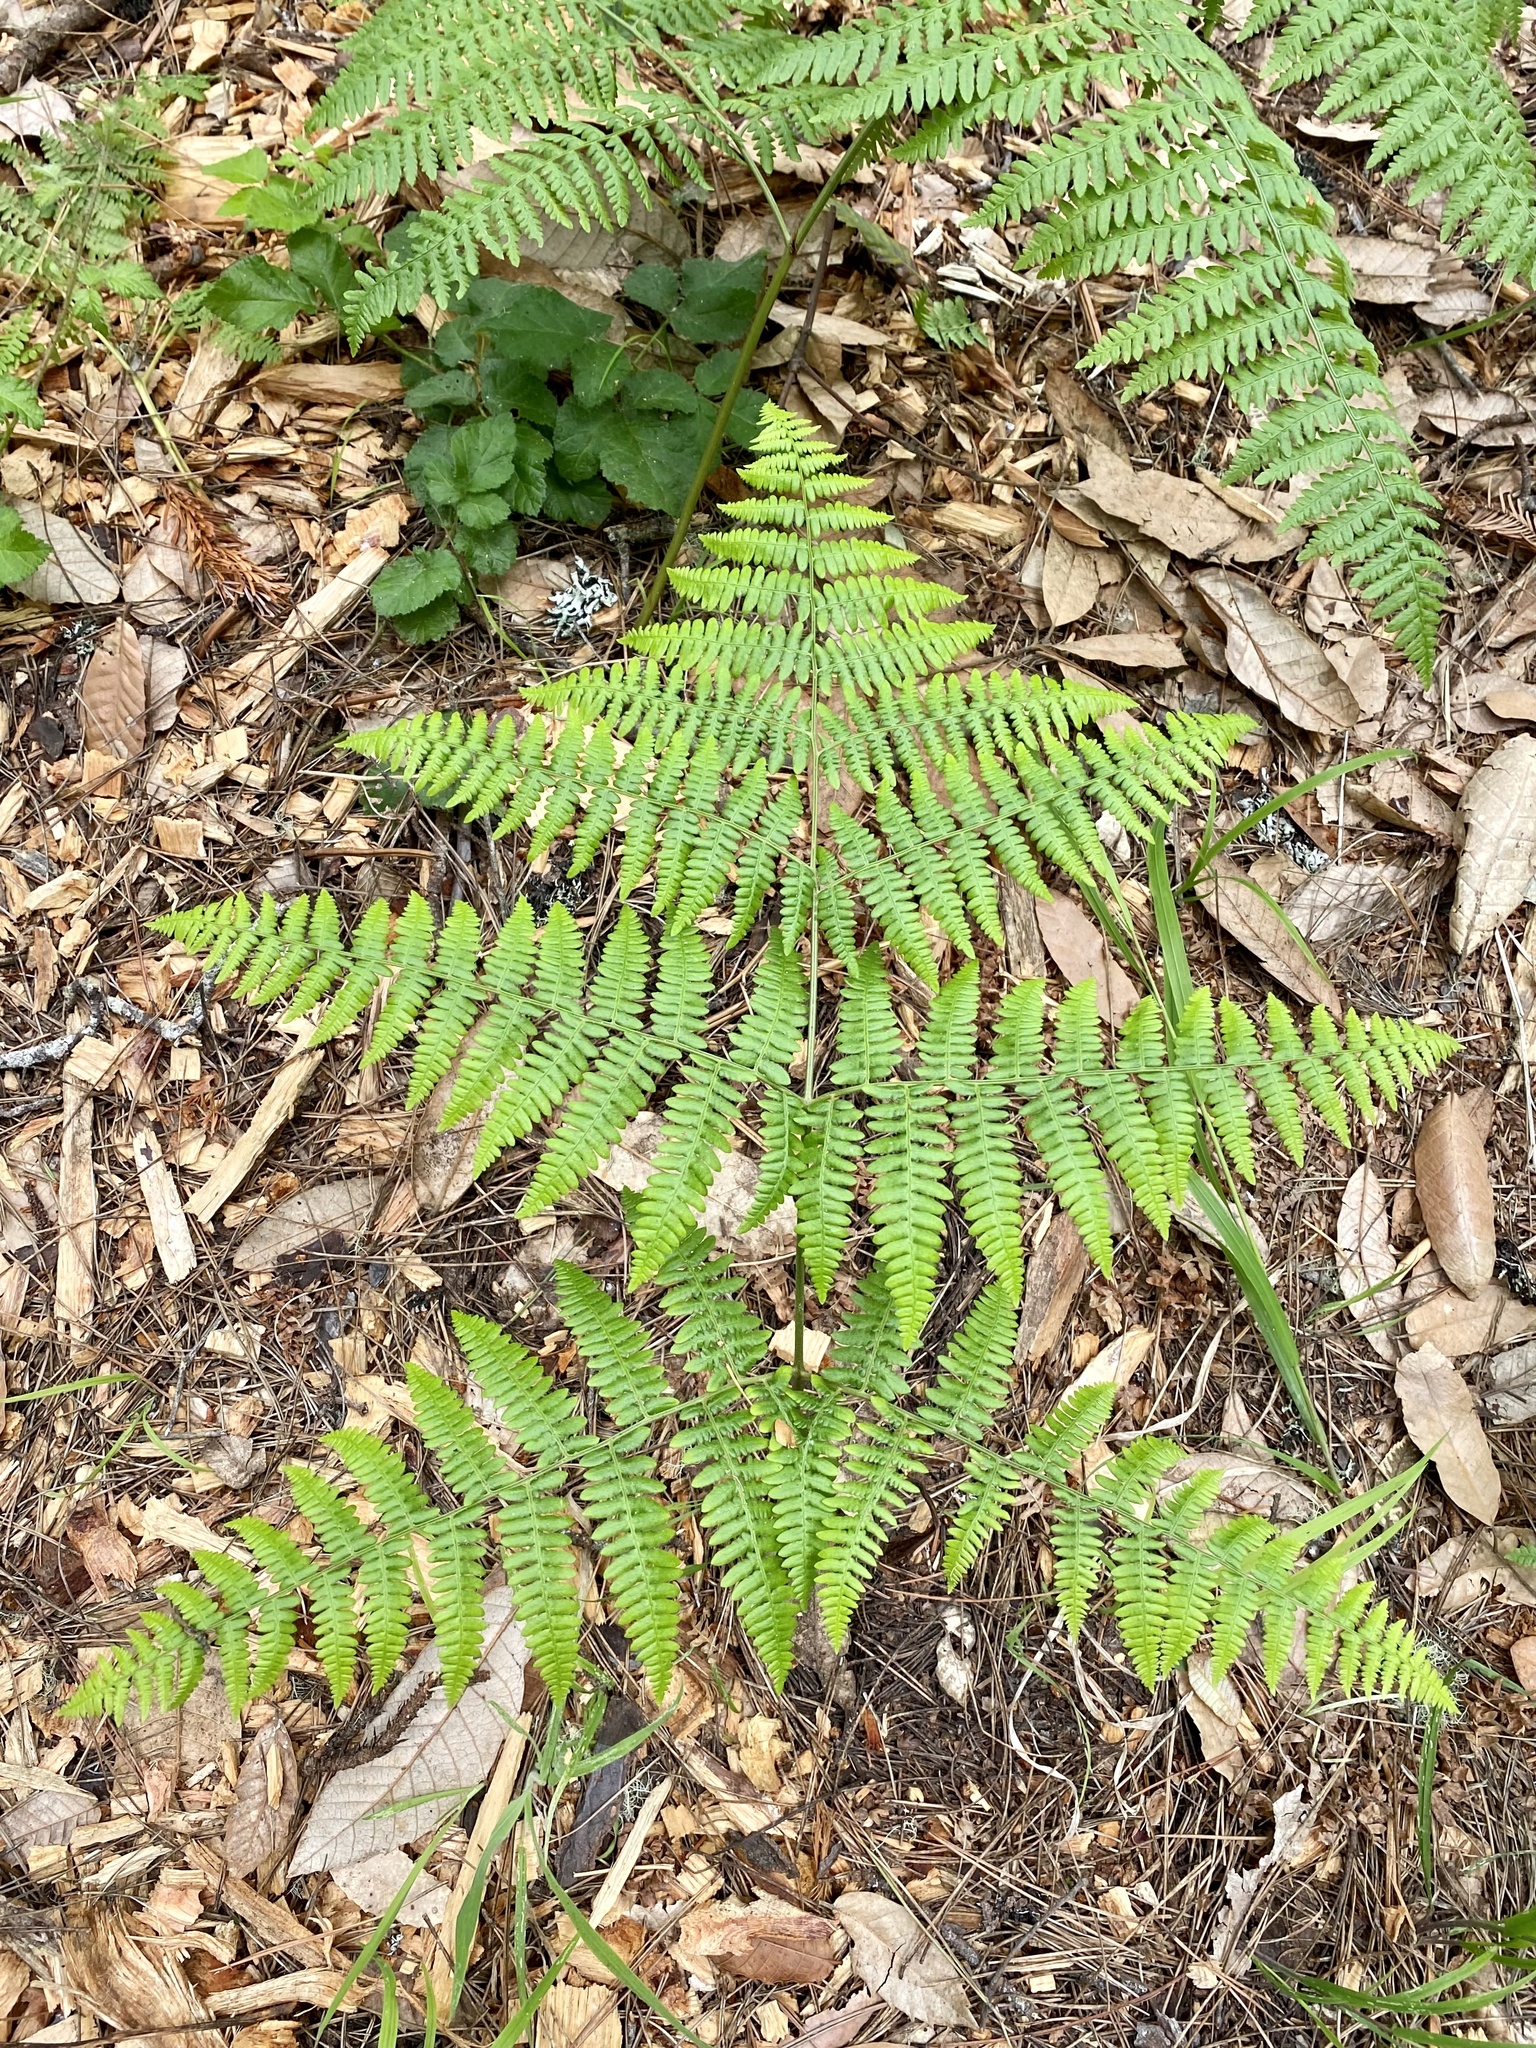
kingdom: Plantae
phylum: Tracheophyta
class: Polypodiopsida
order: Polypodiales
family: Dennstaedtiaceae
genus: Pteridium
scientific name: Pteridium aquilinum
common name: Bracken
